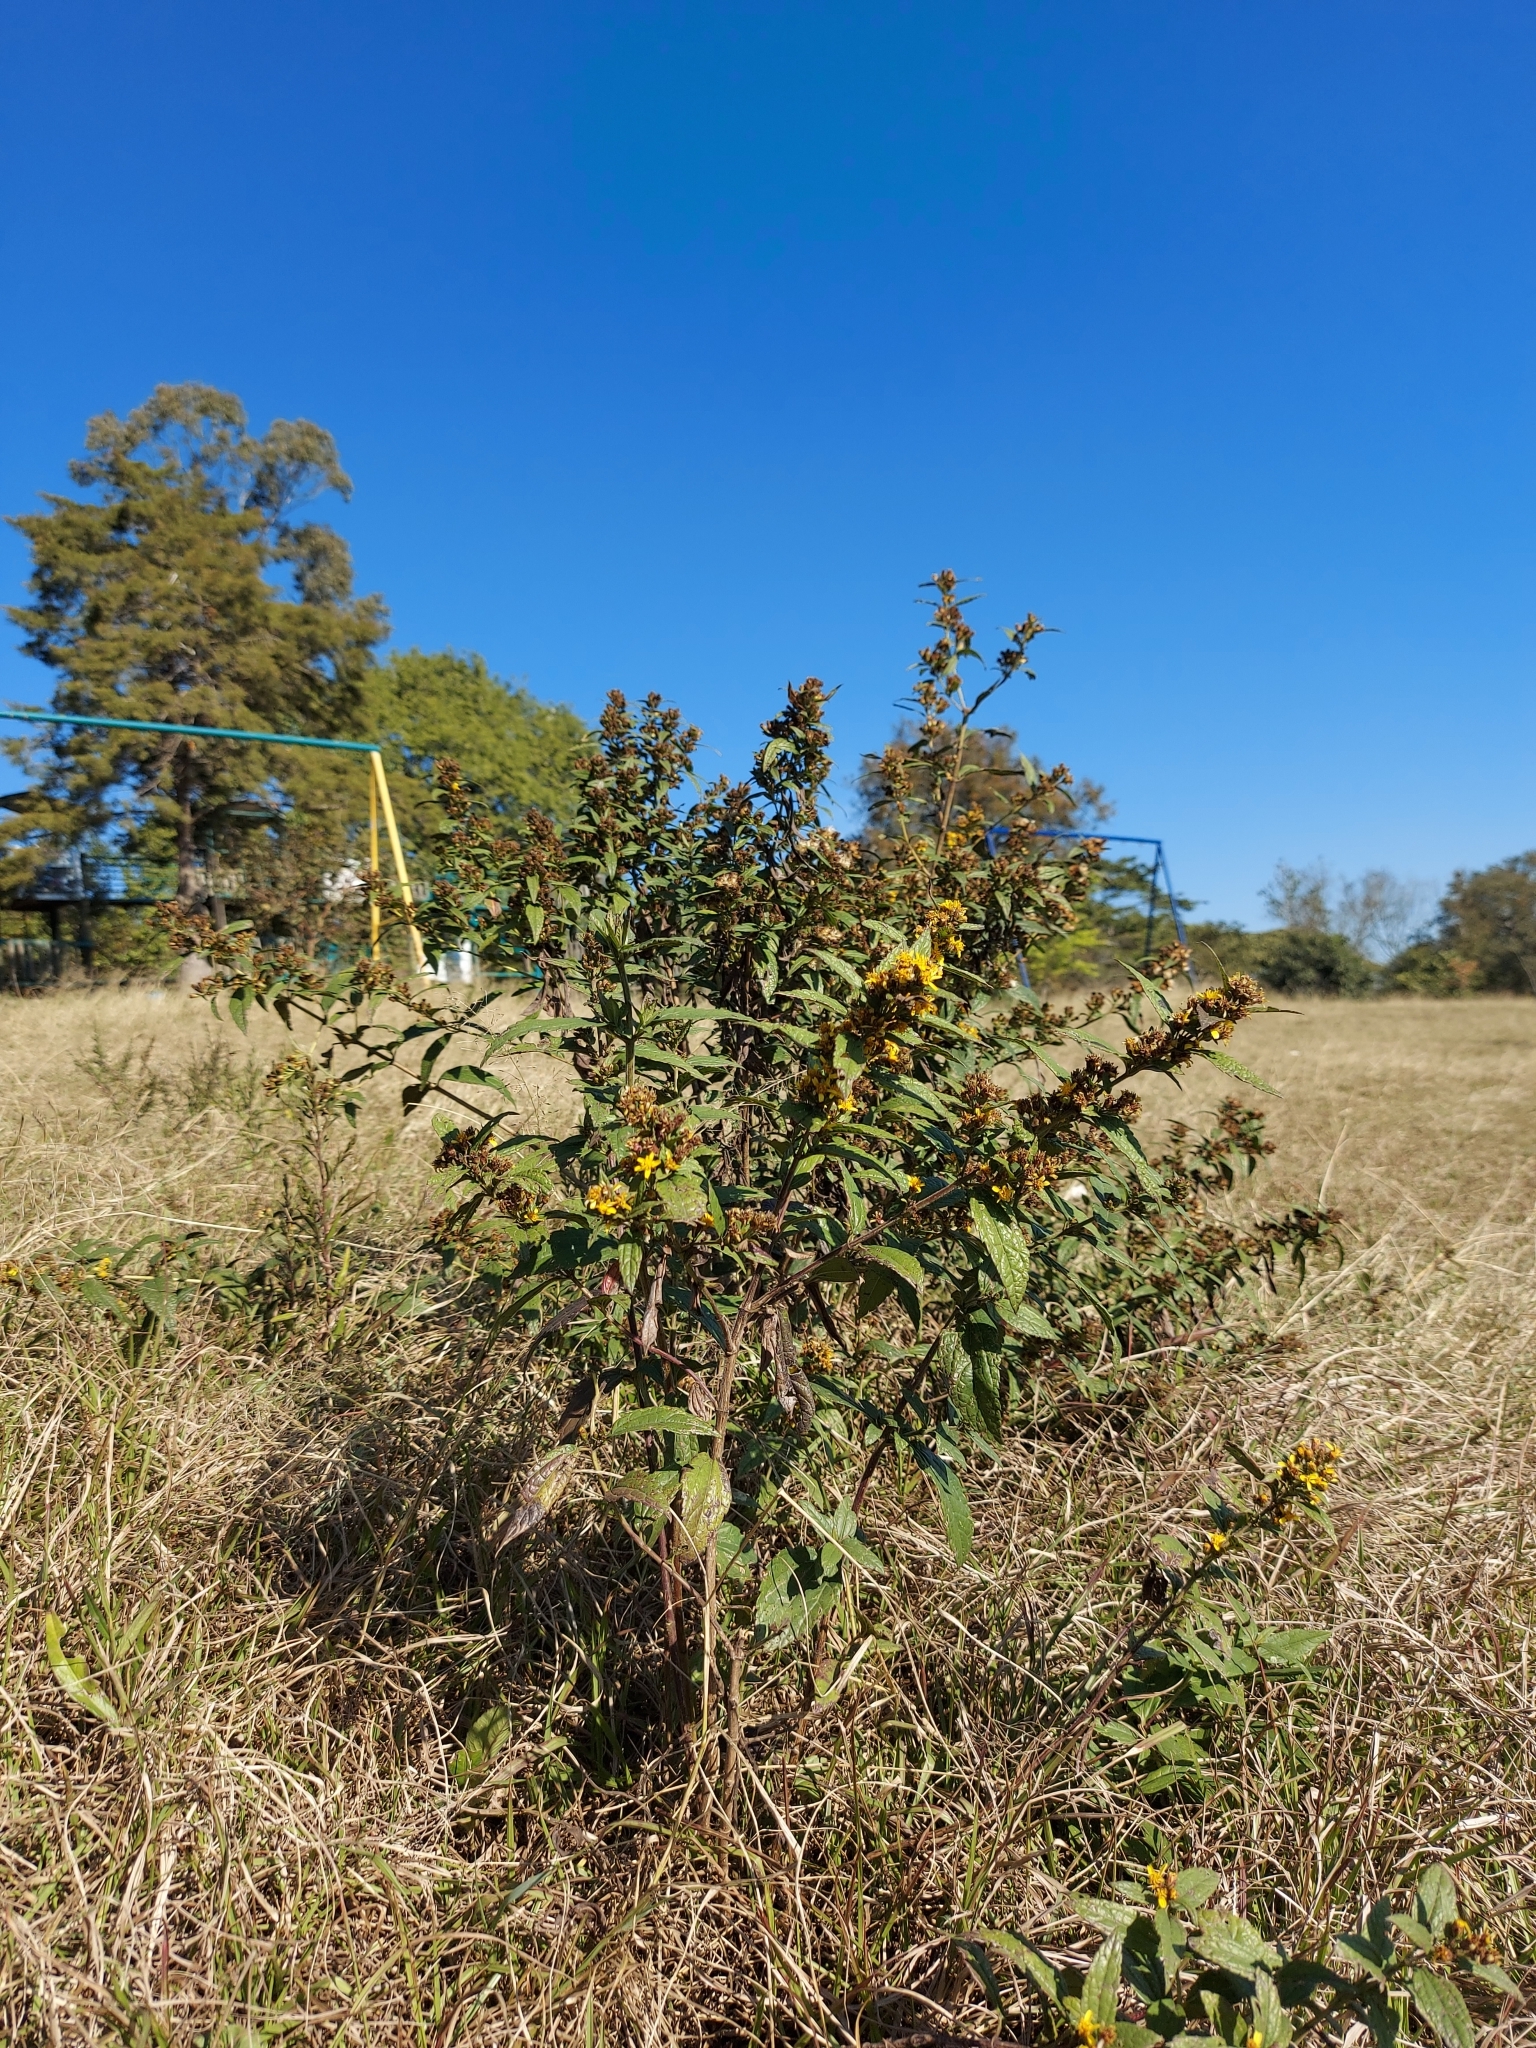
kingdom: Plantae
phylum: Tracheophyta
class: Magnoliopsida
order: Asterales
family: Asteraceae
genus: Calea
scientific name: Calea urticifolia
